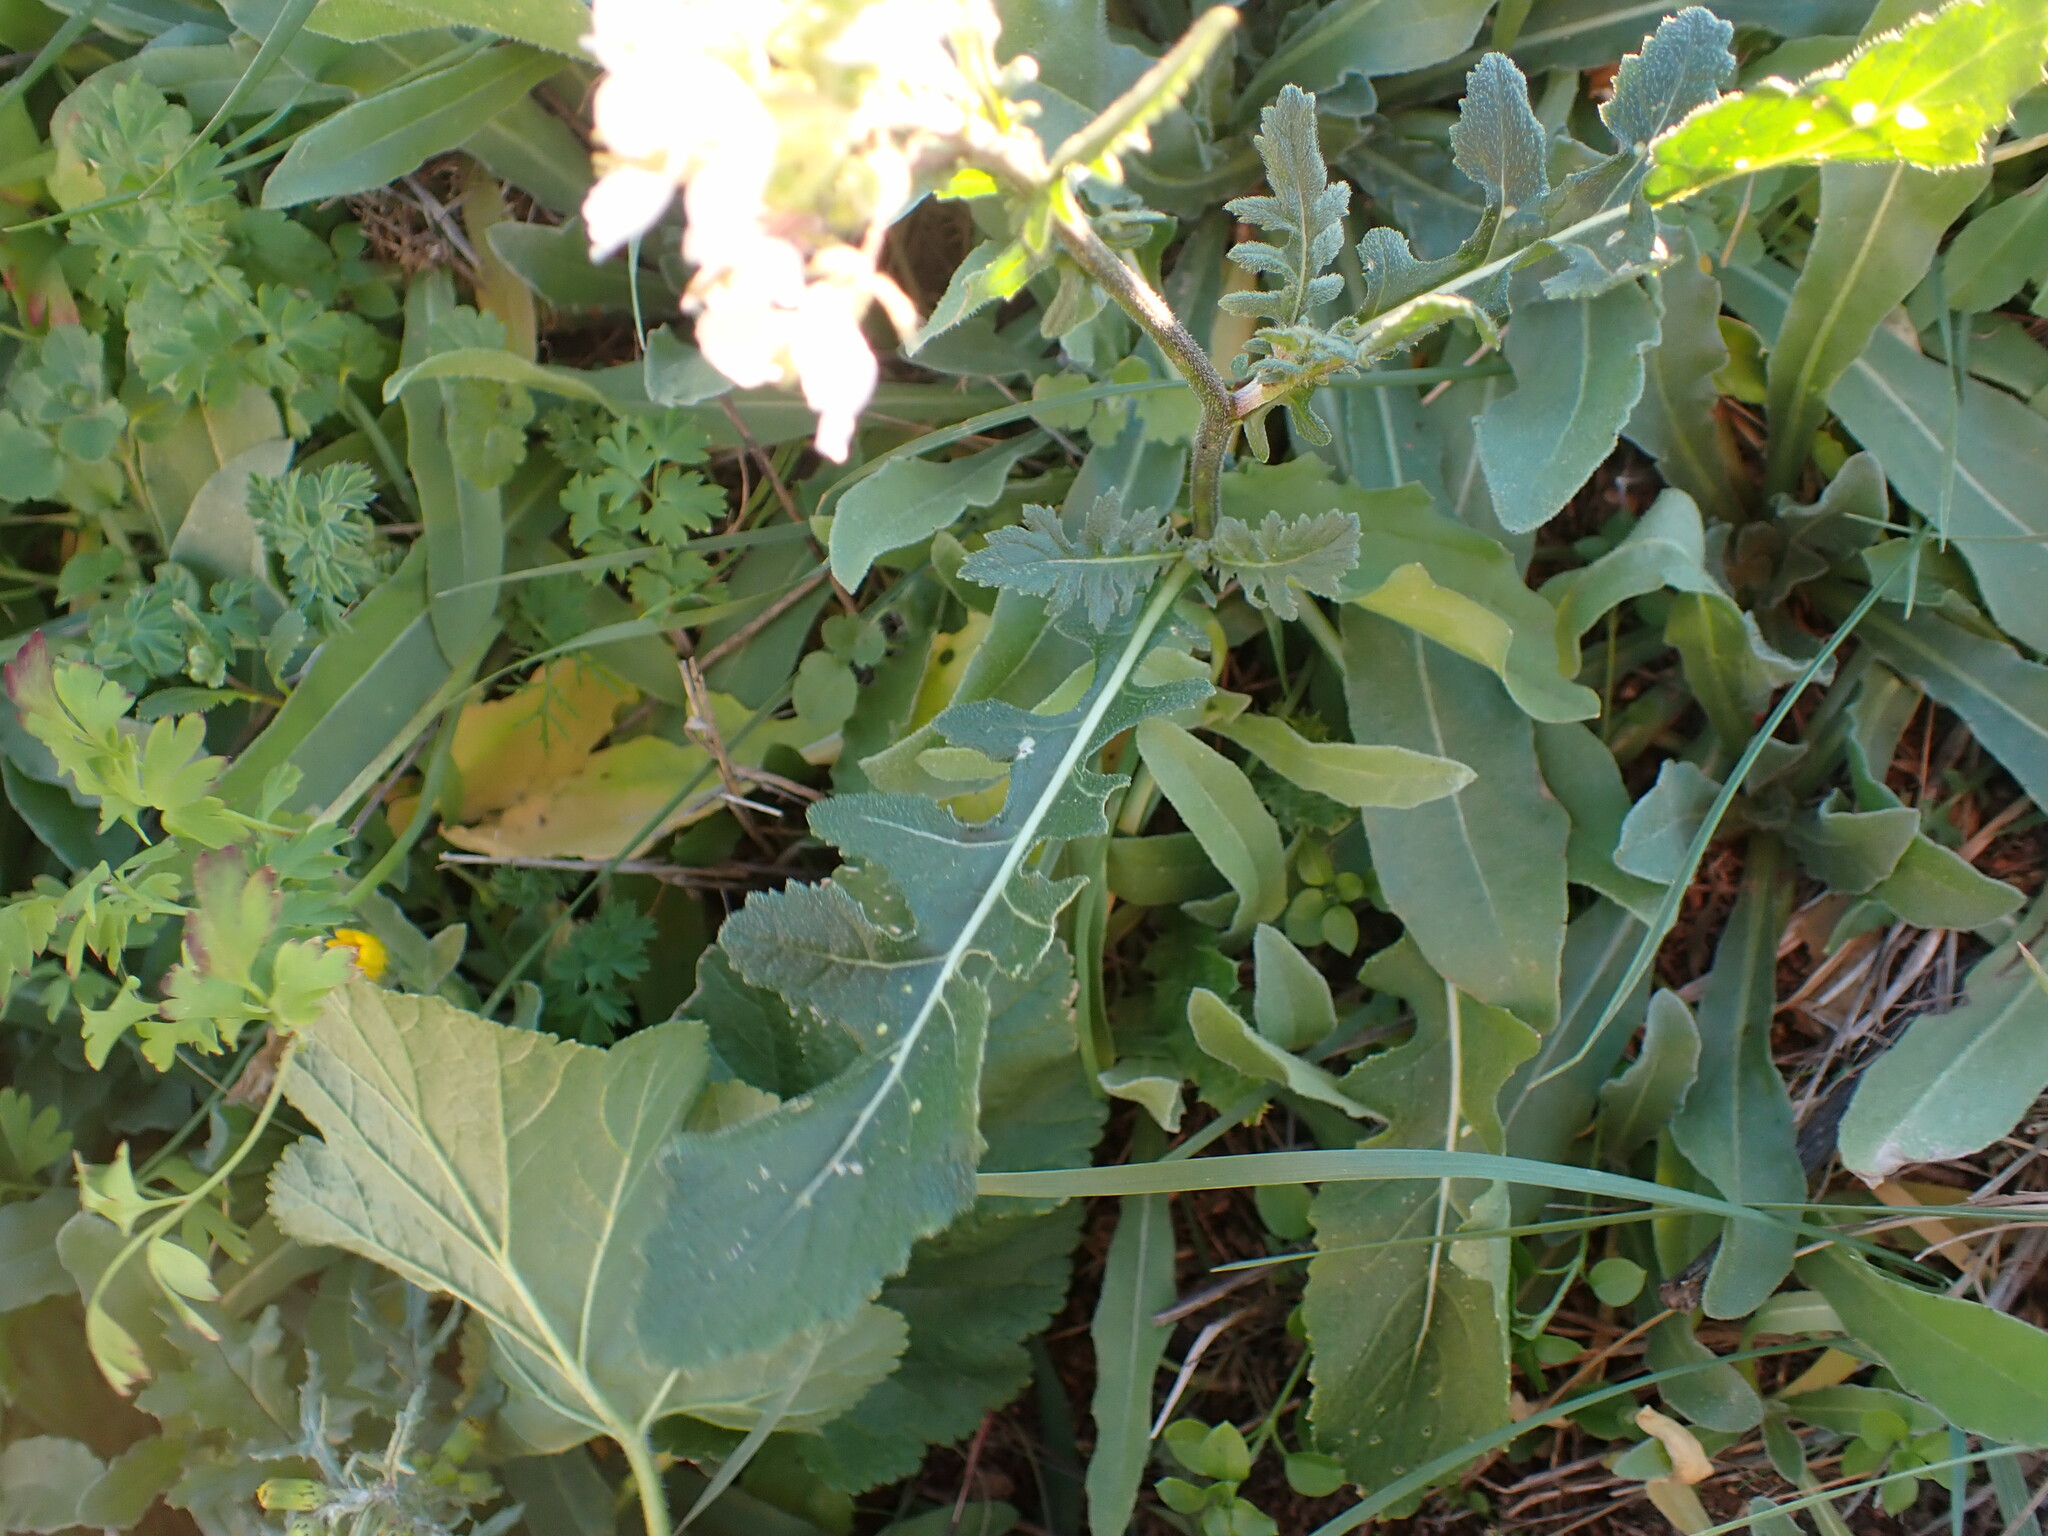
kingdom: Plantae
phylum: Tracheophyta
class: Magnoliopsida
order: Brassicales
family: Brassicaceae
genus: Diplotaxis
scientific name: Diplotaxis erucoides
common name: White rocket
